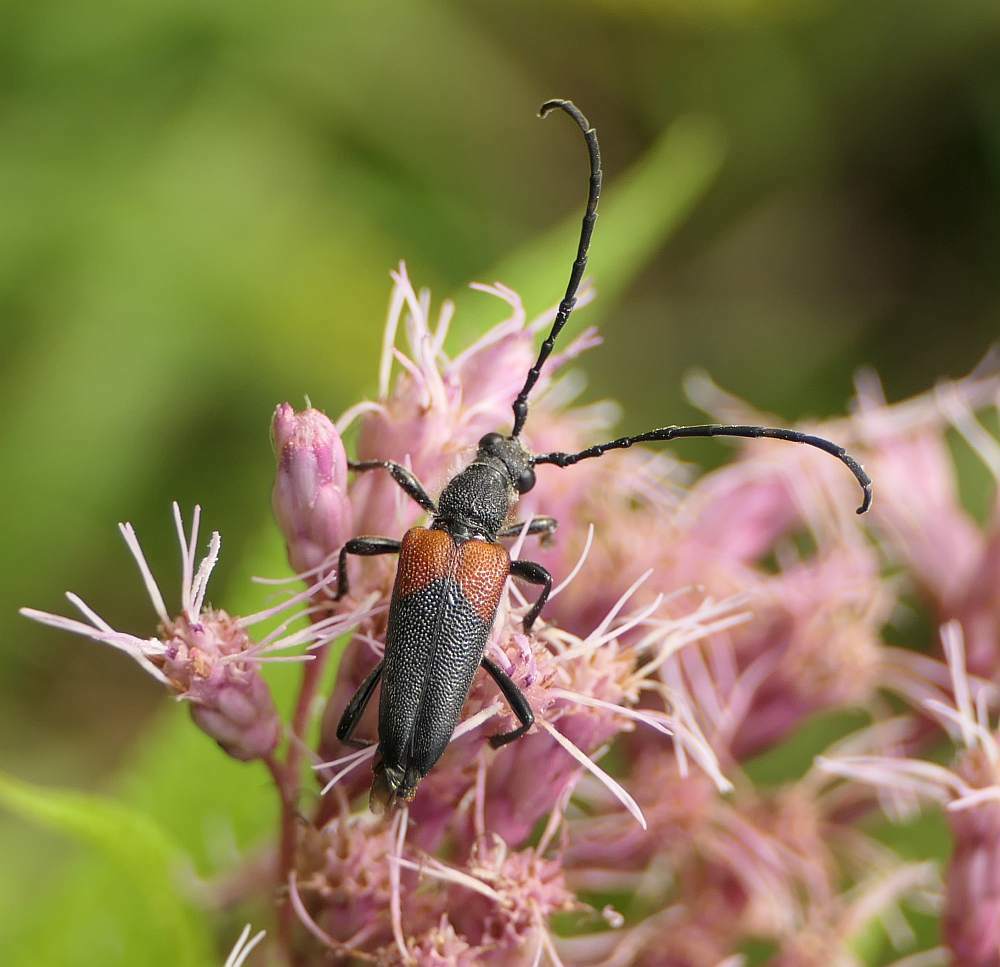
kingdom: Animalia
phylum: Arthropoda
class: Insecta
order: Coleoptera
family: Cerambycidae
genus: Stictoleptura
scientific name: Stictoleptura canadensis
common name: Red-shouldered pine borer
